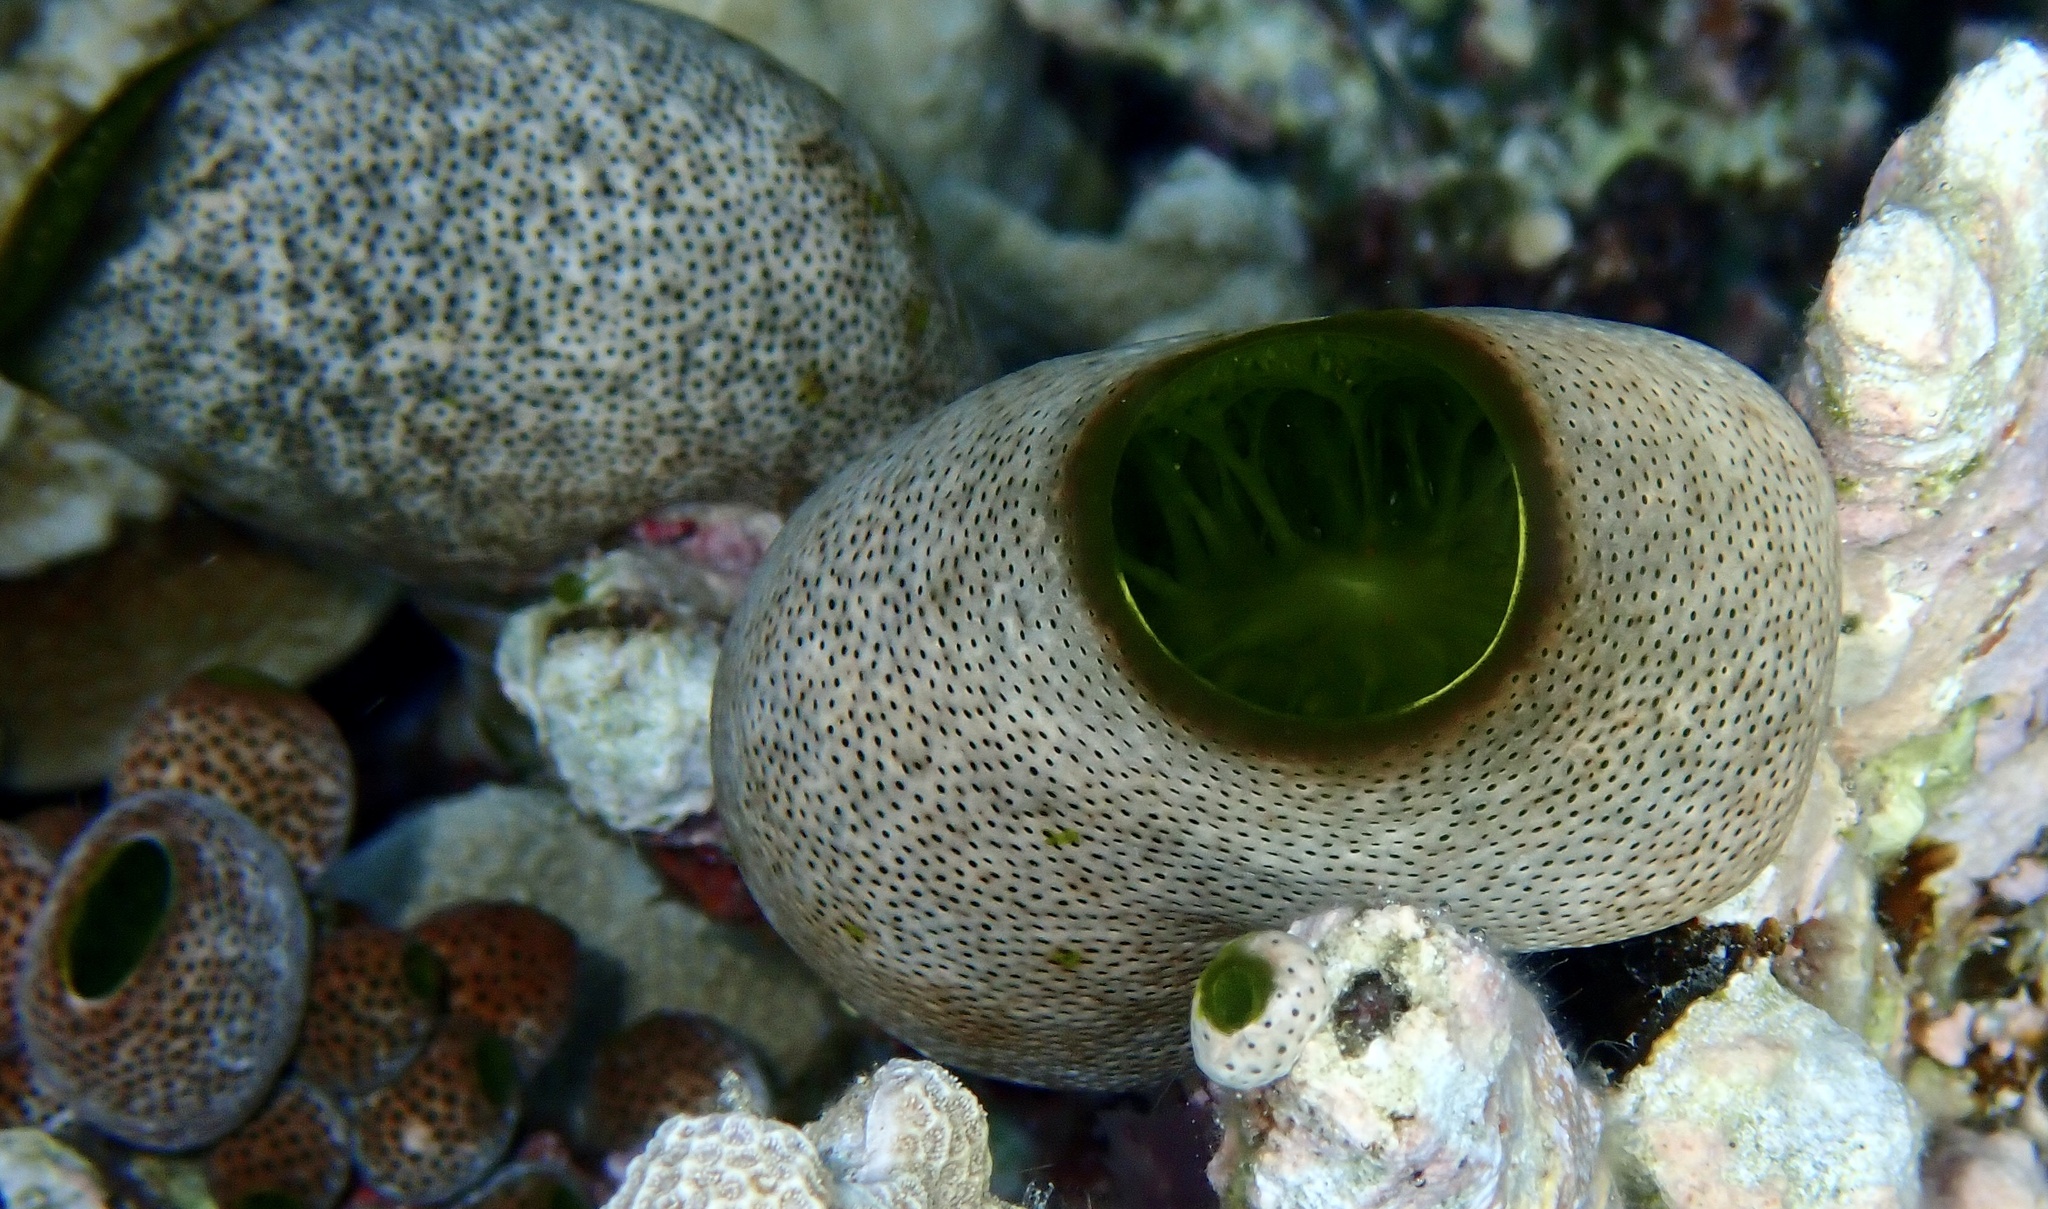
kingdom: Animalia
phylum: Chordata
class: Ascidiacea
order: Aplousobranchia
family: Didemnidae
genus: Didemnum
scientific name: Didemnum molle
